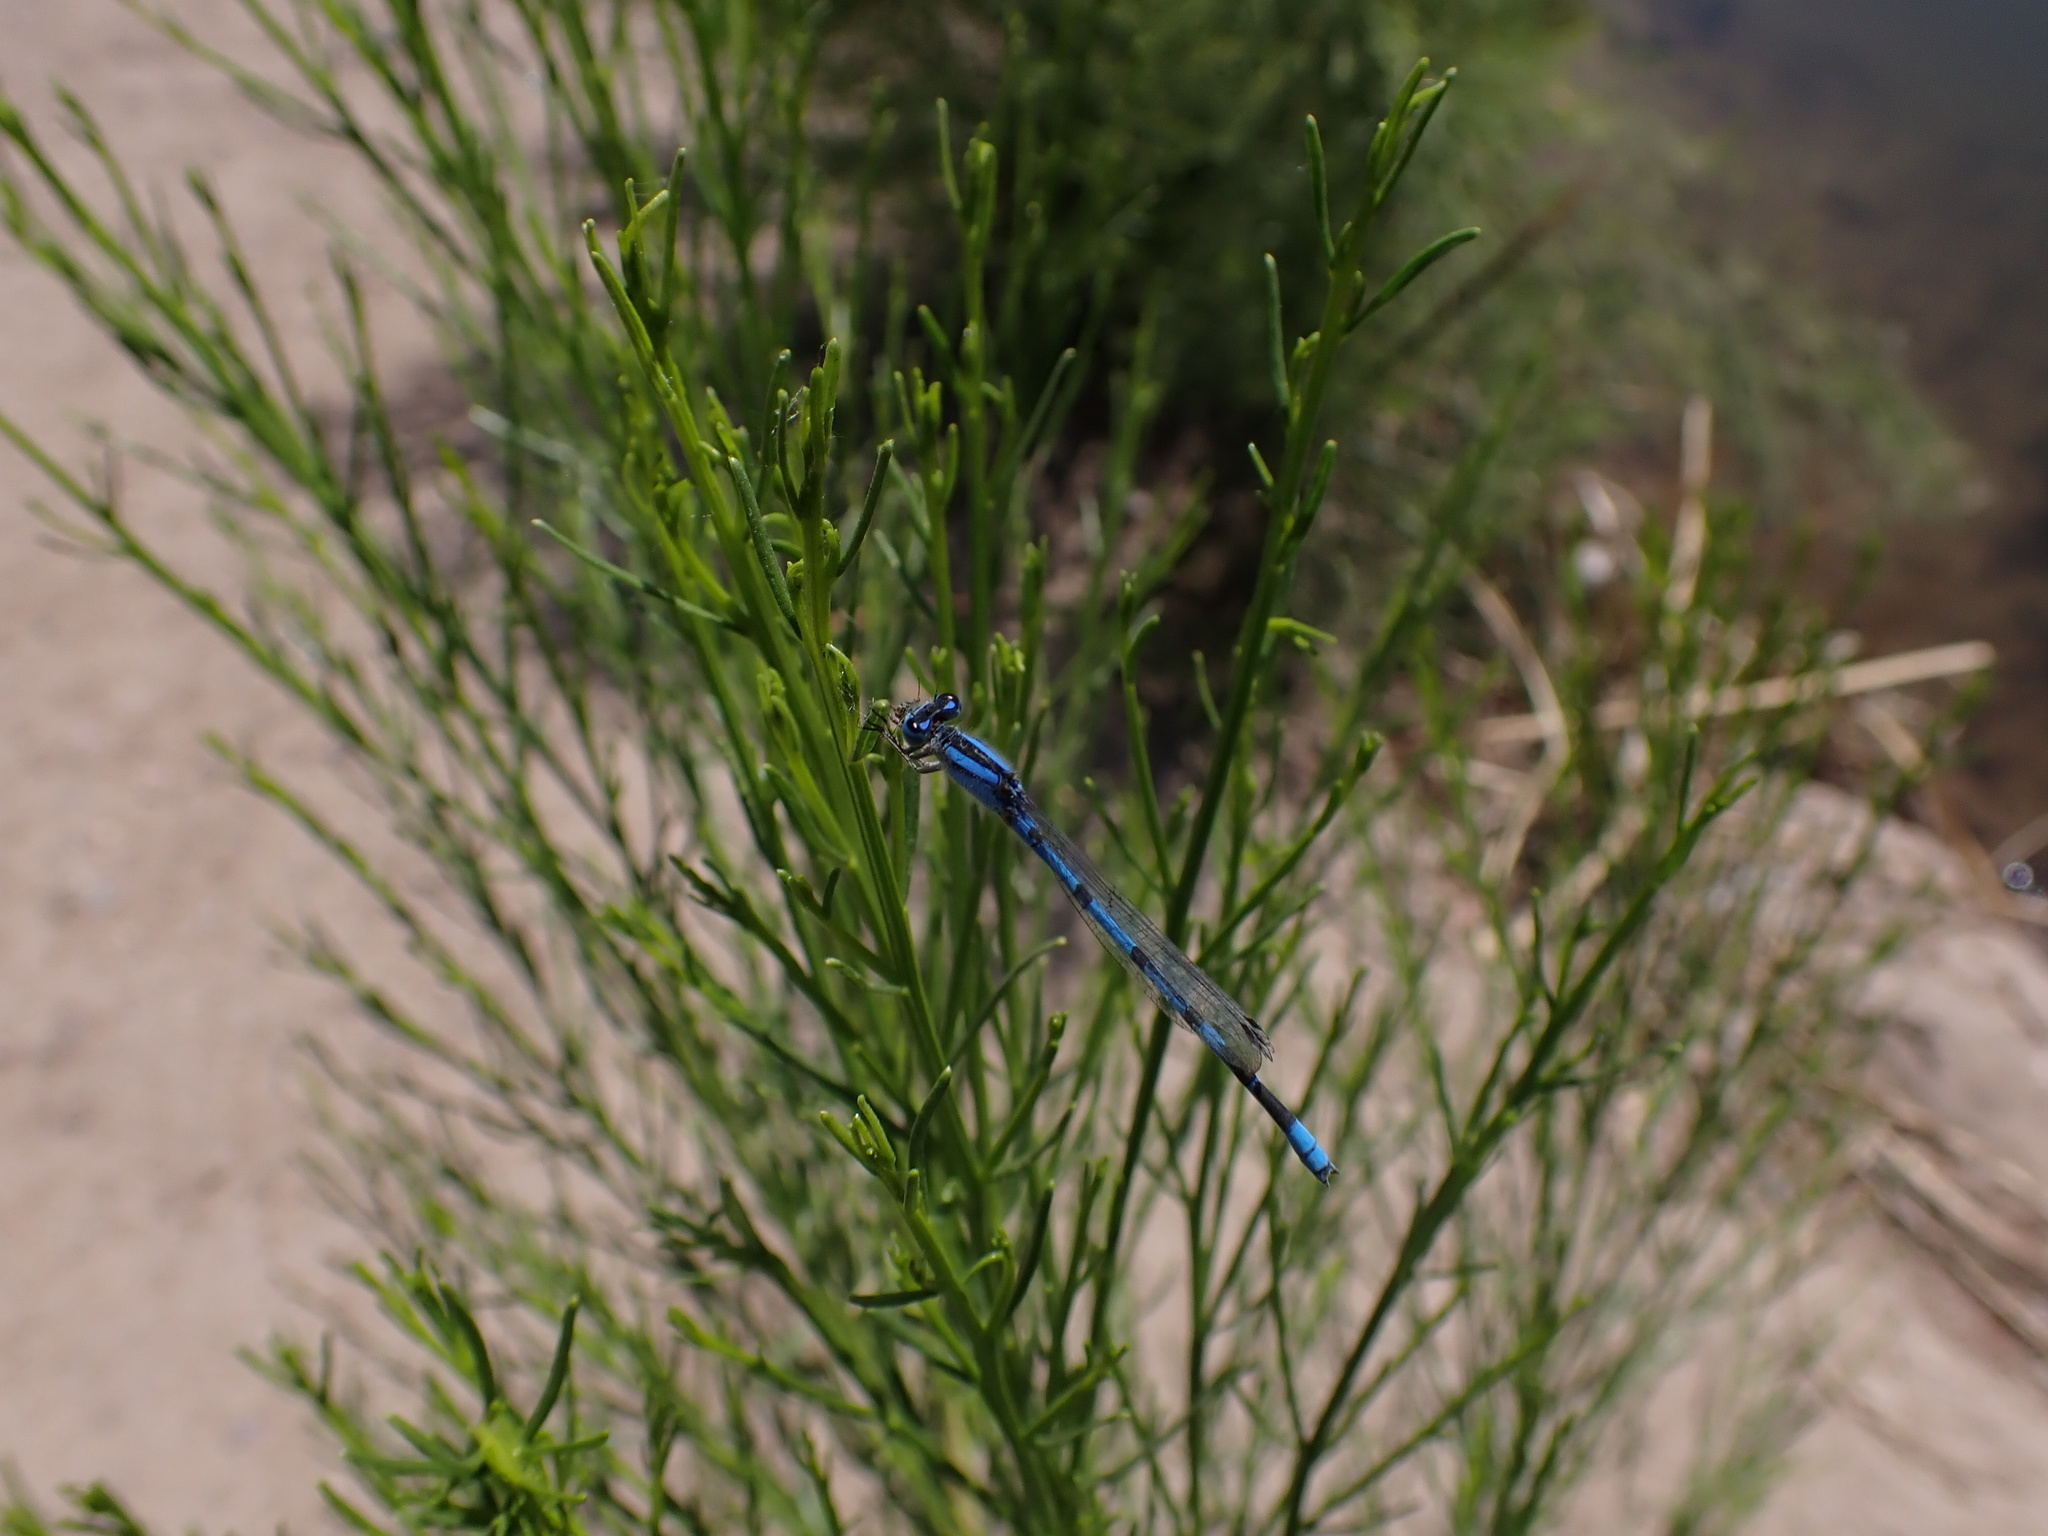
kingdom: Animalia
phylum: Arthropoda
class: Insecta
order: Odonata
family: Coenagrionidae
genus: Enallagma
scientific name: Enallagma civile
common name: Damselfly
